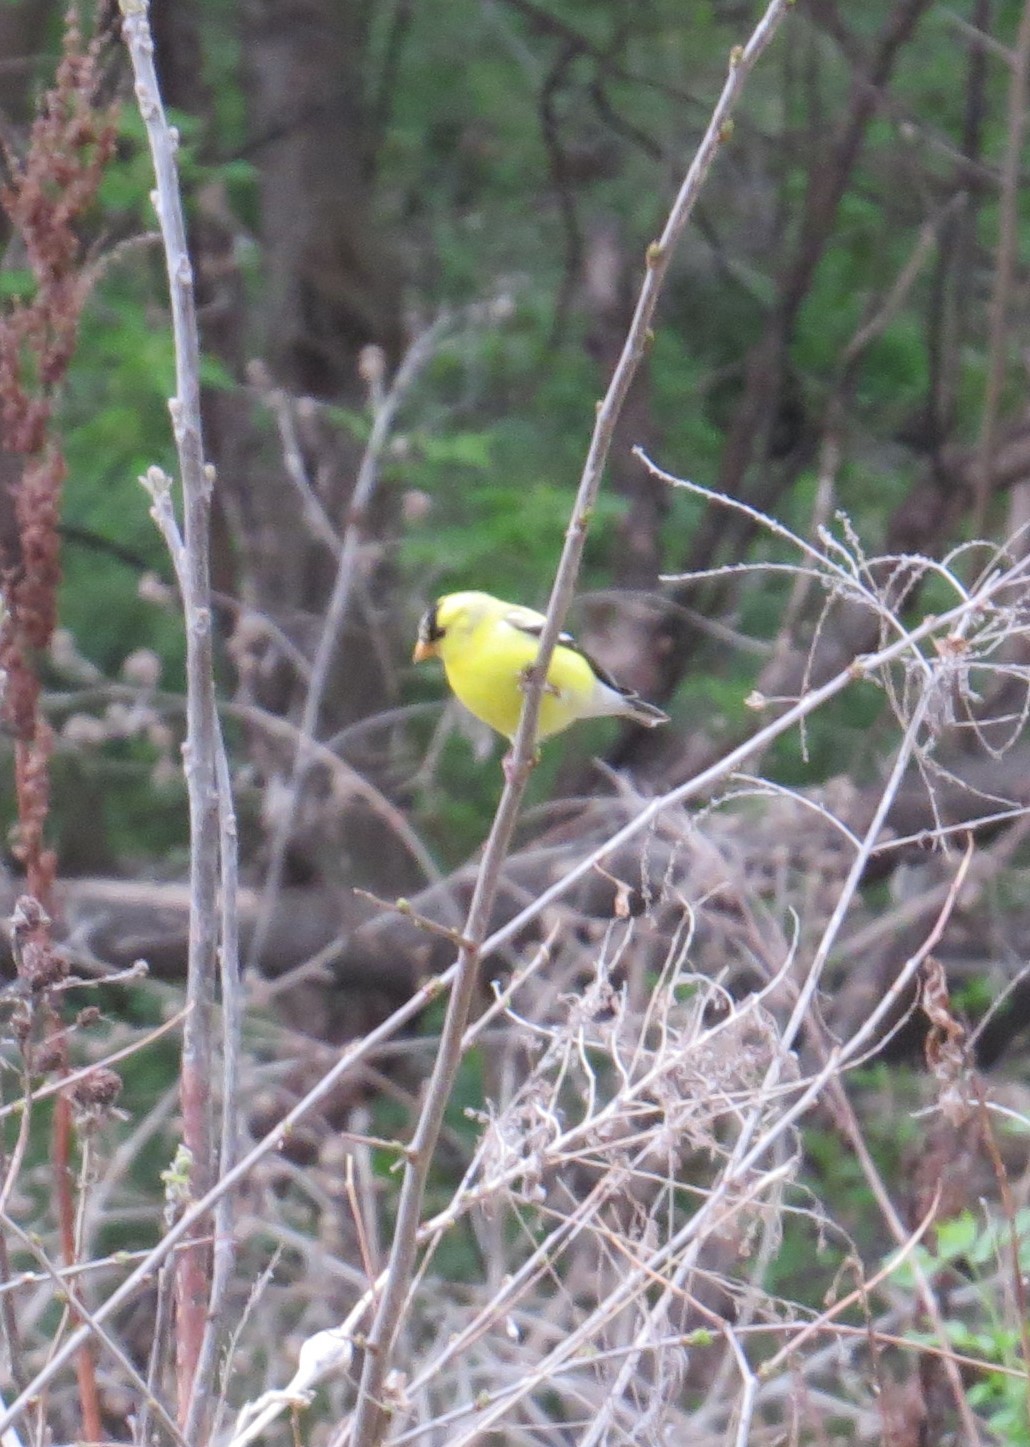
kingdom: Animalia
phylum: Chordata
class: Aves
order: Passeriformes
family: Fringillidae
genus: Spinus
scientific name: Spinus tristis
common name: American goldfinch
